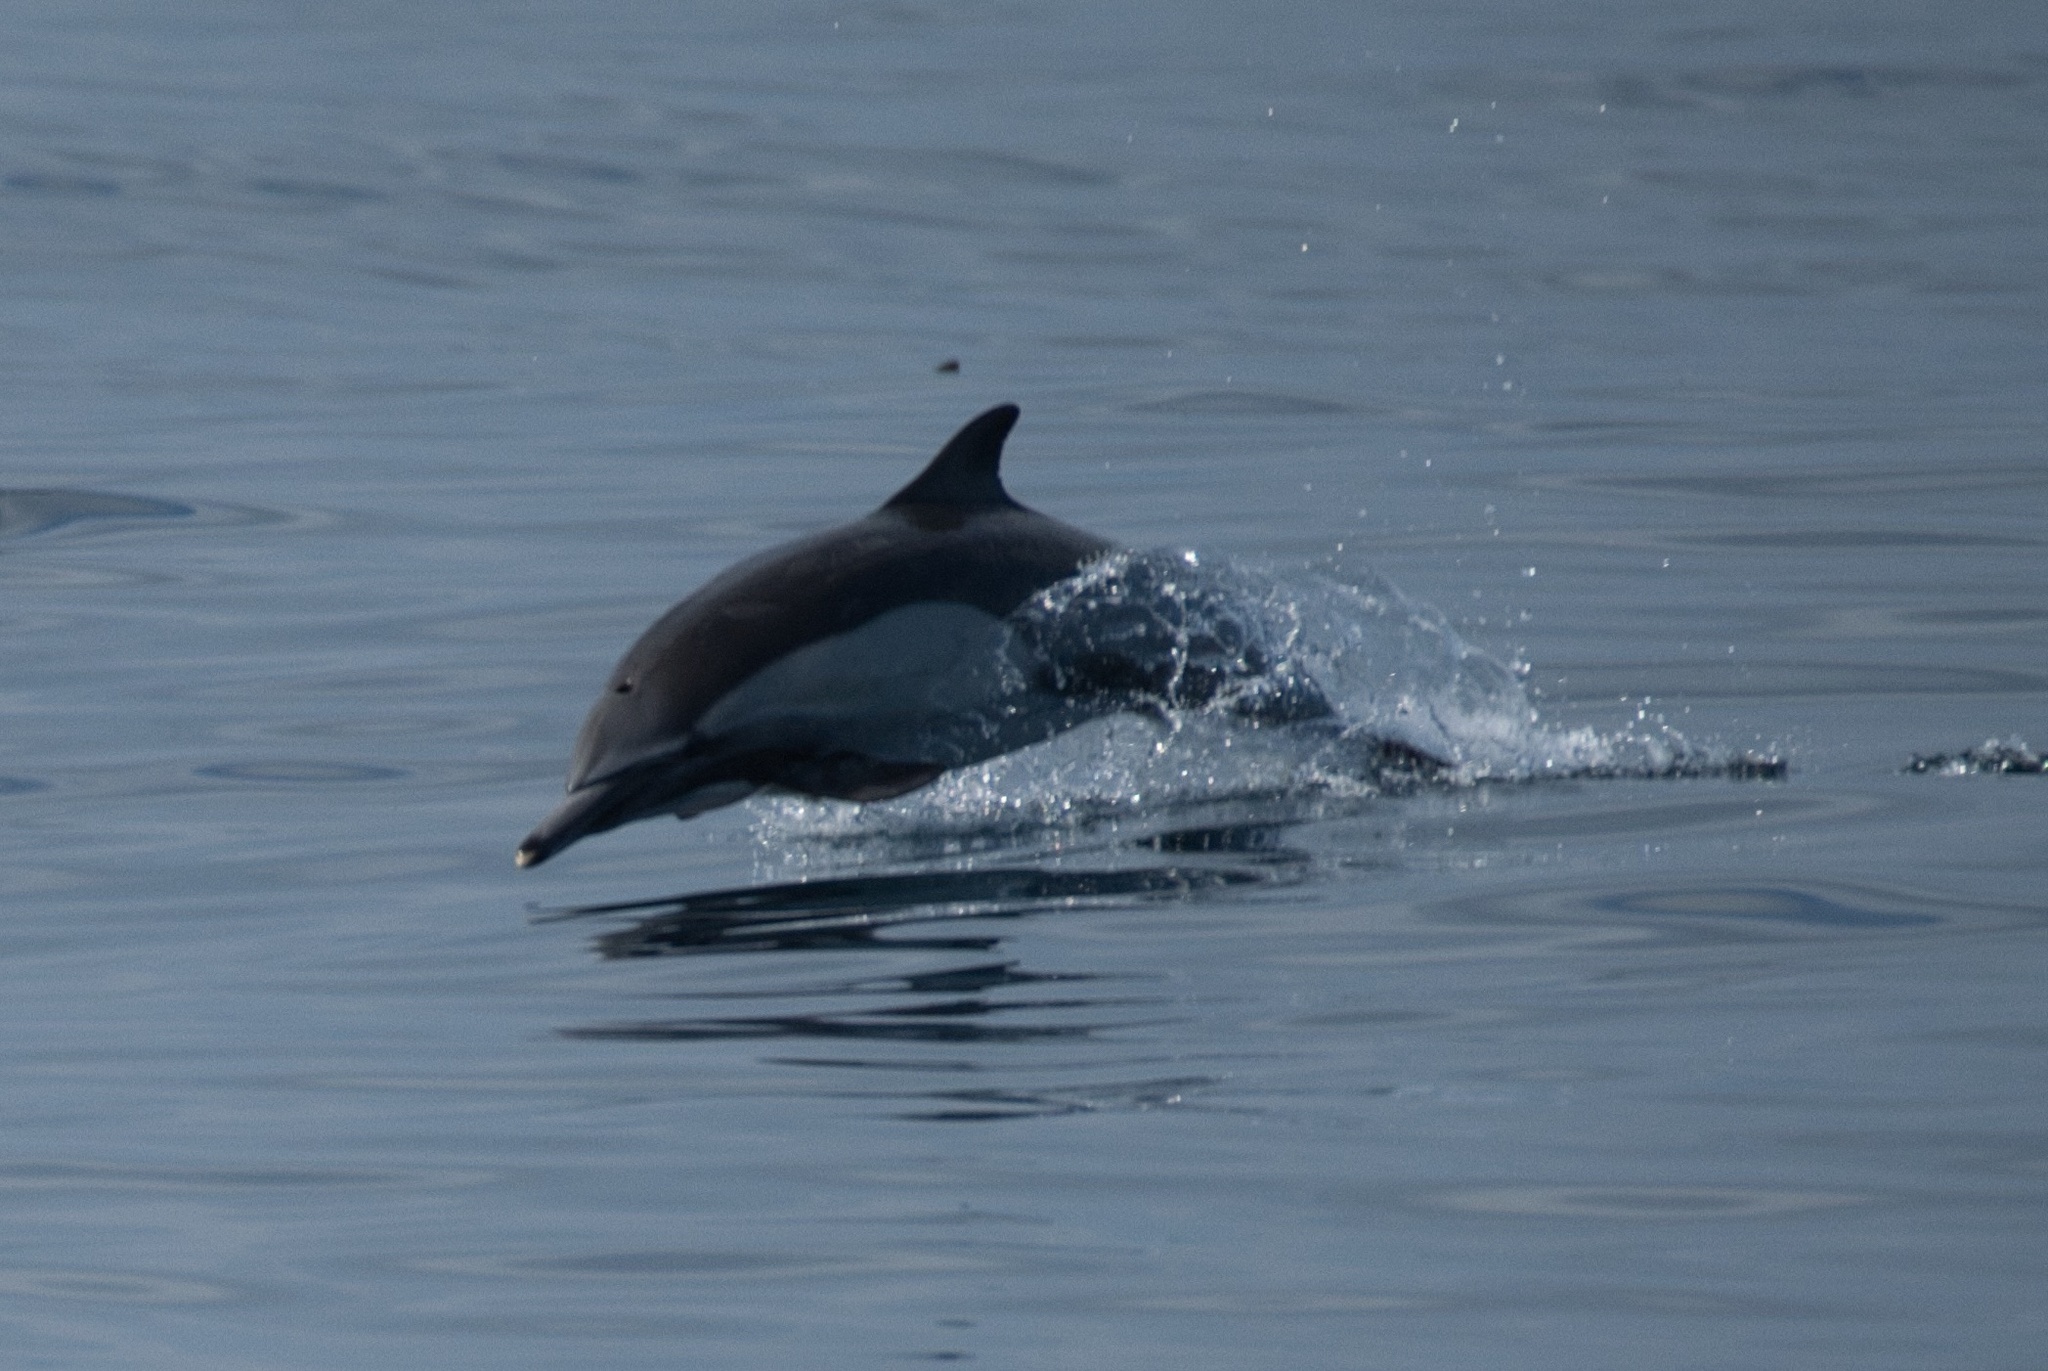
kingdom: Animalia
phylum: Chordata
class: Mammalia
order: Cetacea
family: Delphinidae
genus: Delphinus
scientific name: Delphinus delphis
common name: Common dolphin
